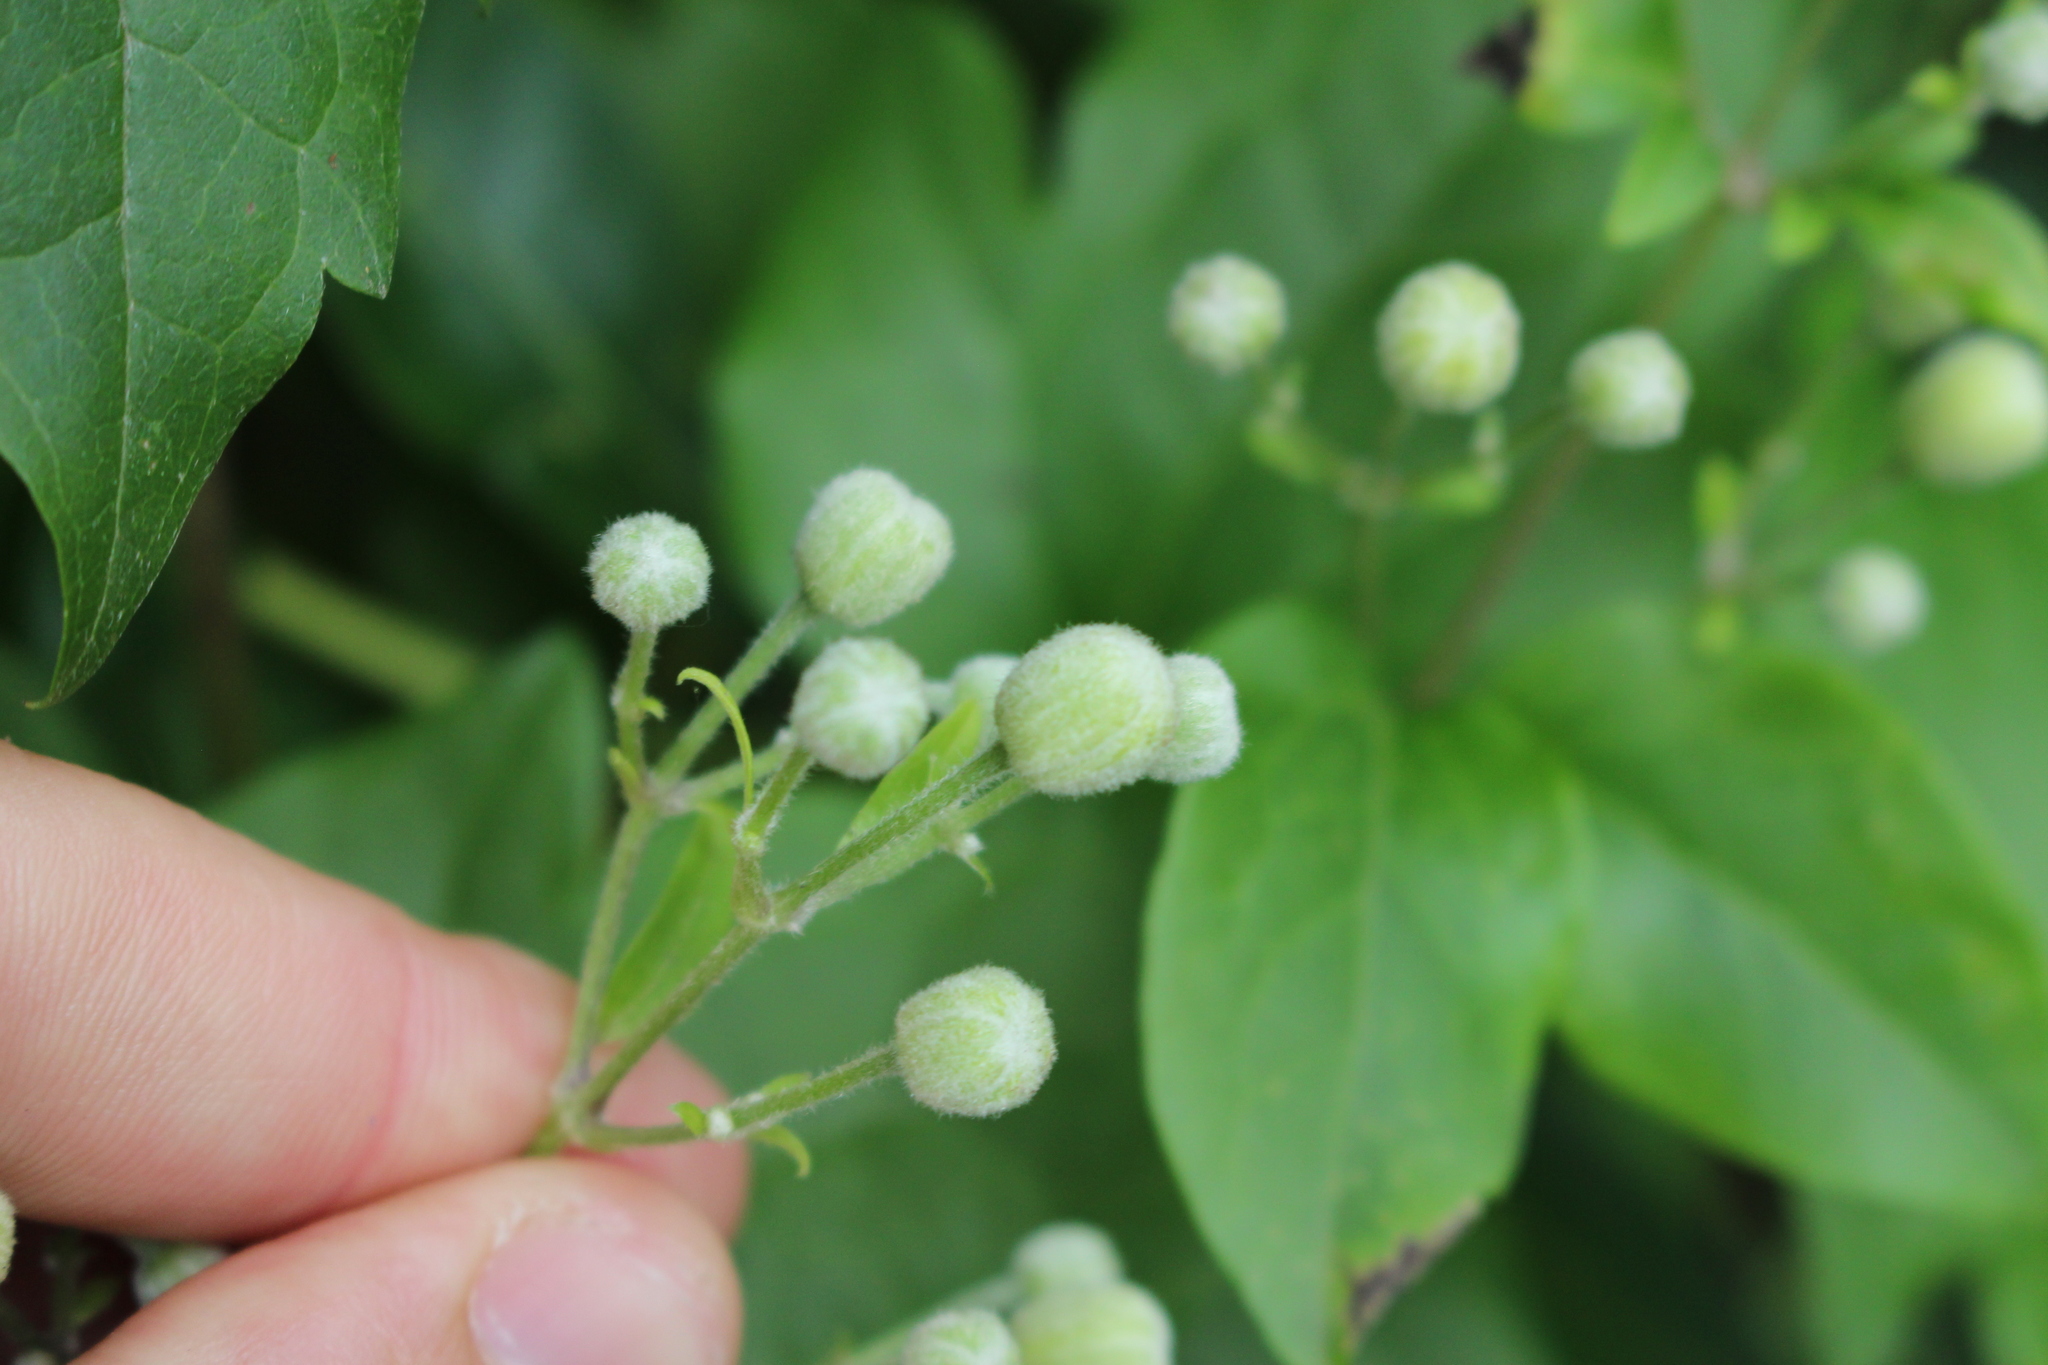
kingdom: Plantae
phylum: Tracheophyta
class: Magnoliopsida
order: Ranunculales
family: Ranunculaceae
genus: Clematis
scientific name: Clematis vitalba
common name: Evergreen clematis
